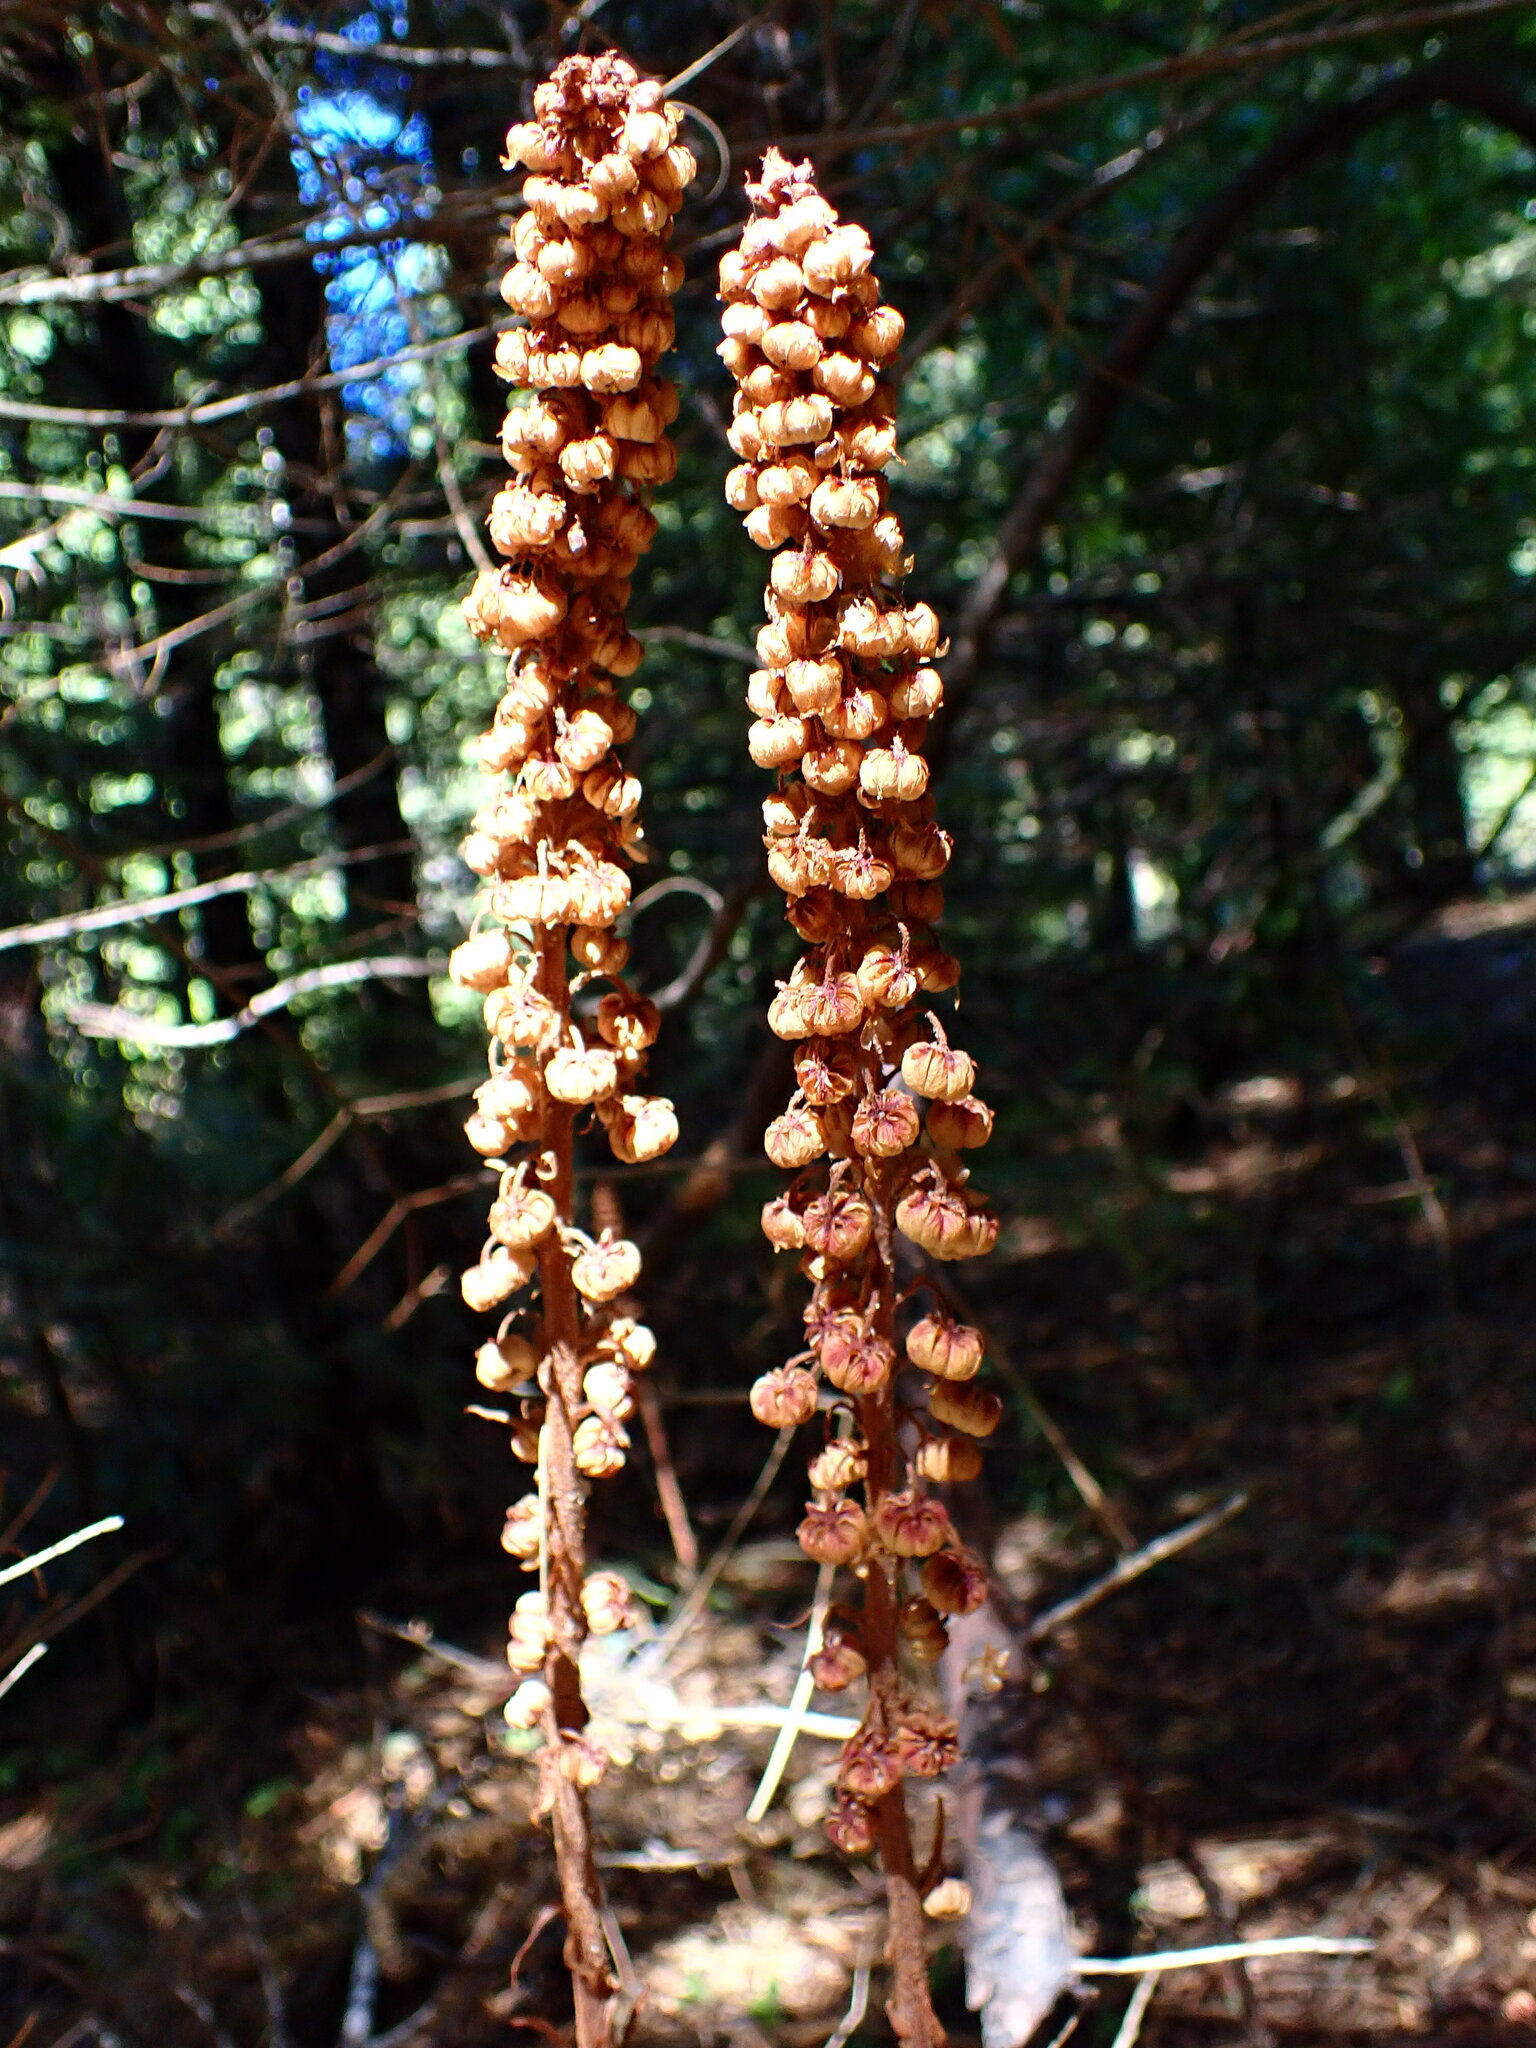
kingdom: Plantae
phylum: Tracheophyta
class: Magnoliopsida
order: Ericales
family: Ericaceae
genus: Pterospora
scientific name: Pterospora andromedea
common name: Giant bird's-nest
